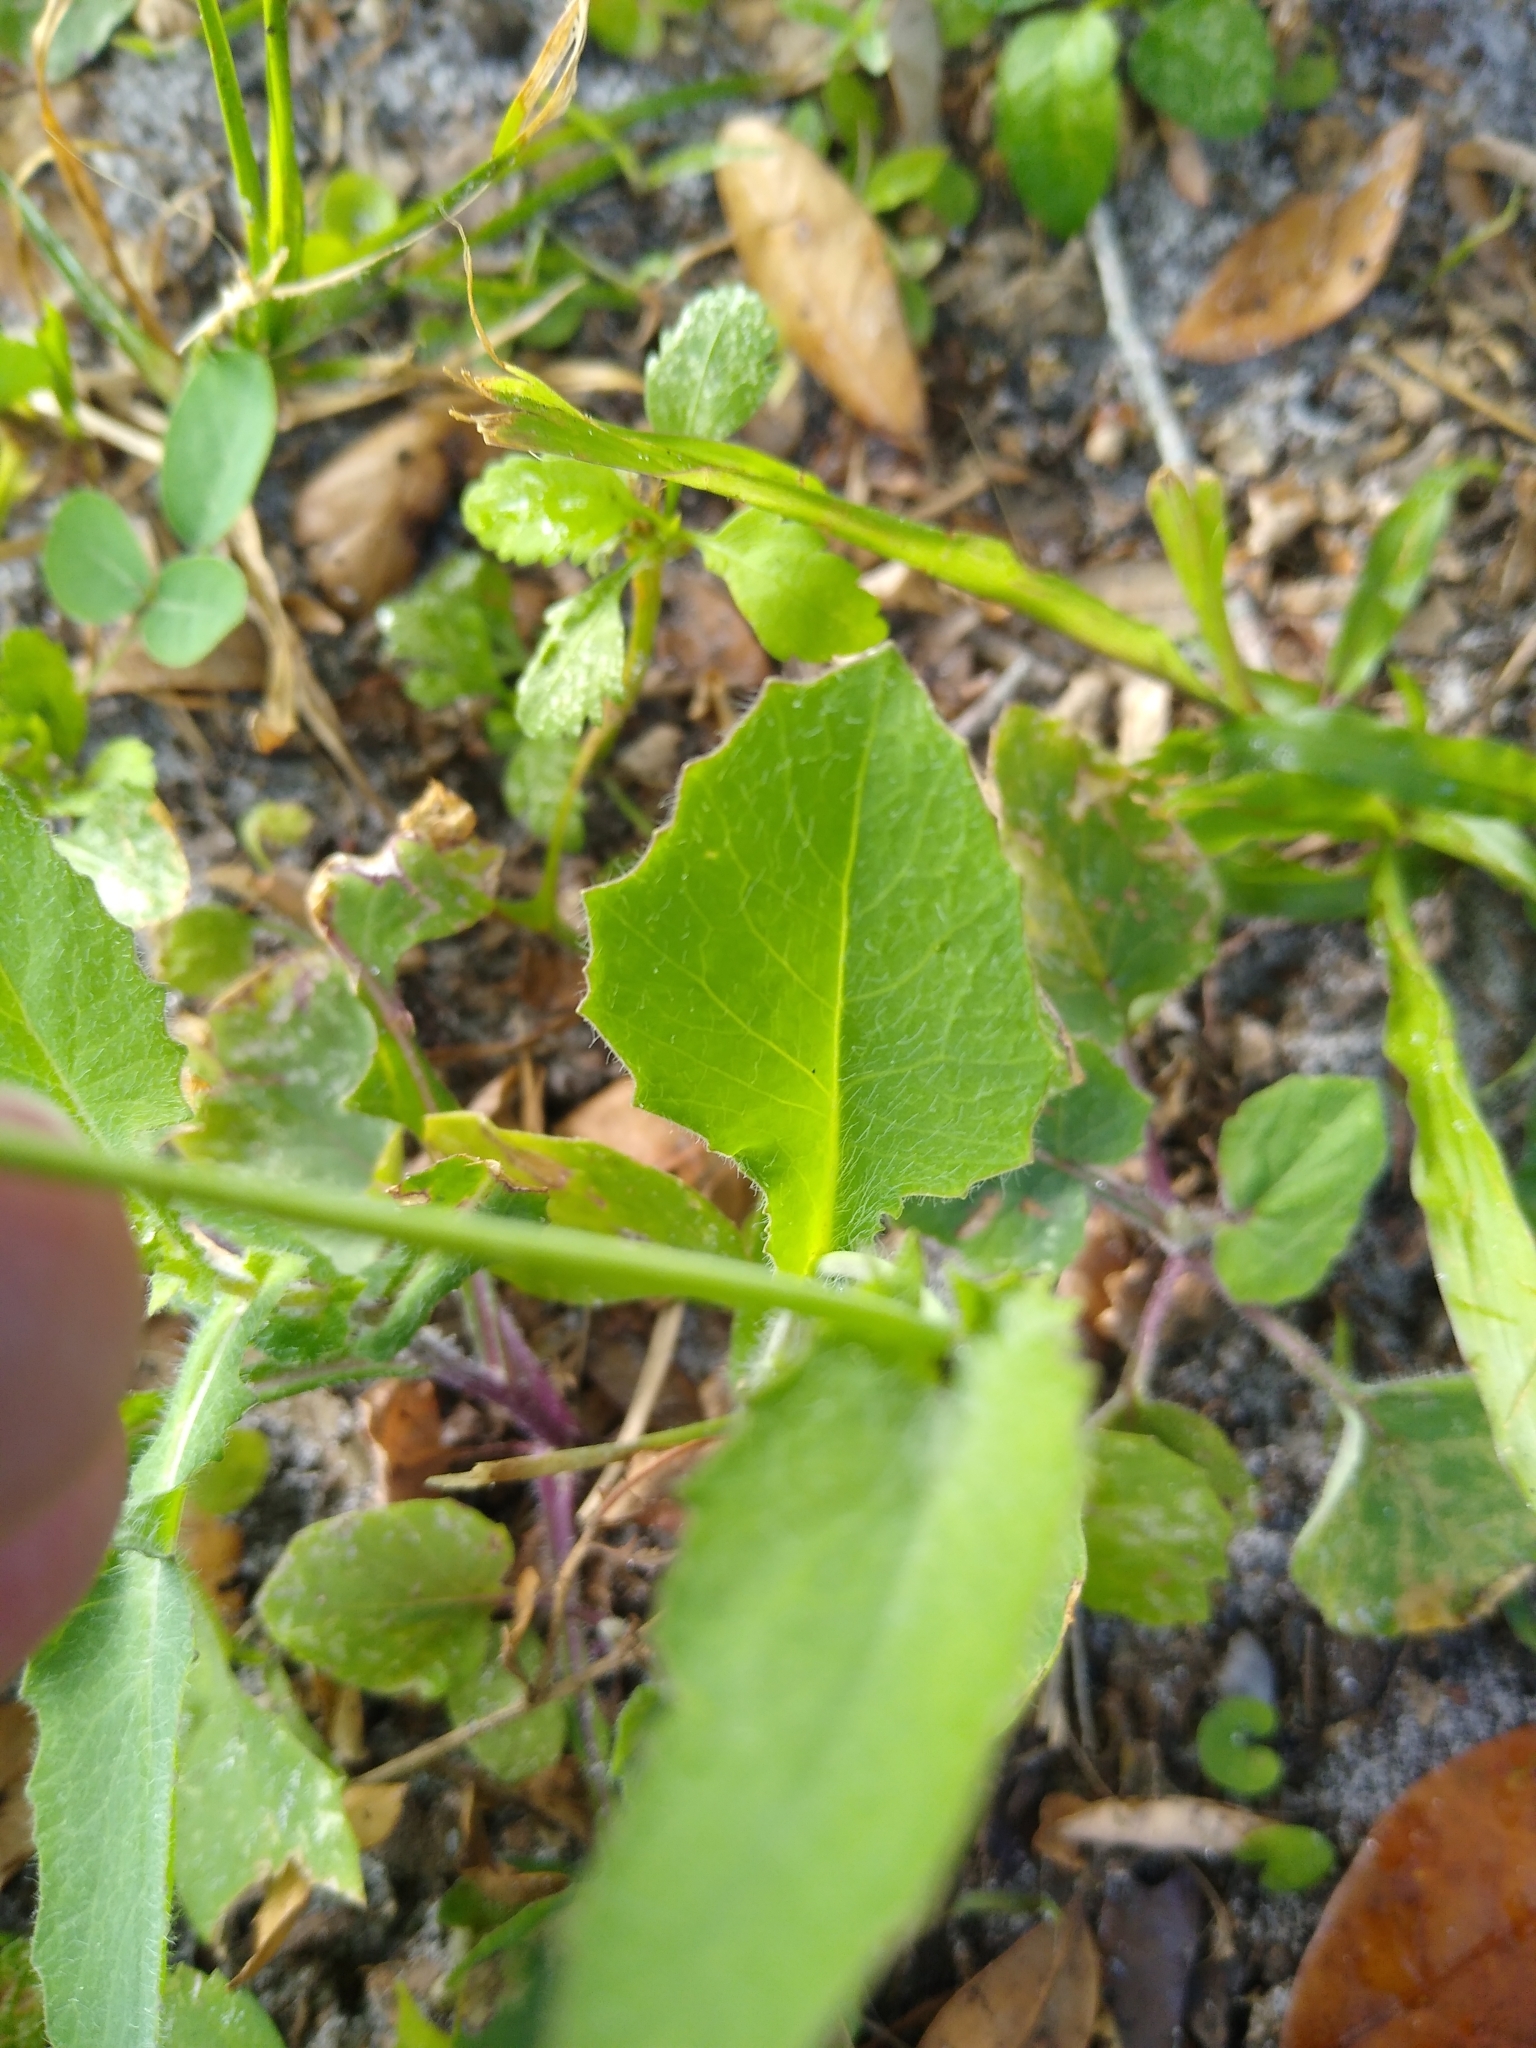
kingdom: Plantae
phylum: Tracheophyta
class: Magnoliopsida
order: Asterales
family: Asteraceae
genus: Emilia
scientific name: Emilia fosbergii
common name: Florida tasselflower
